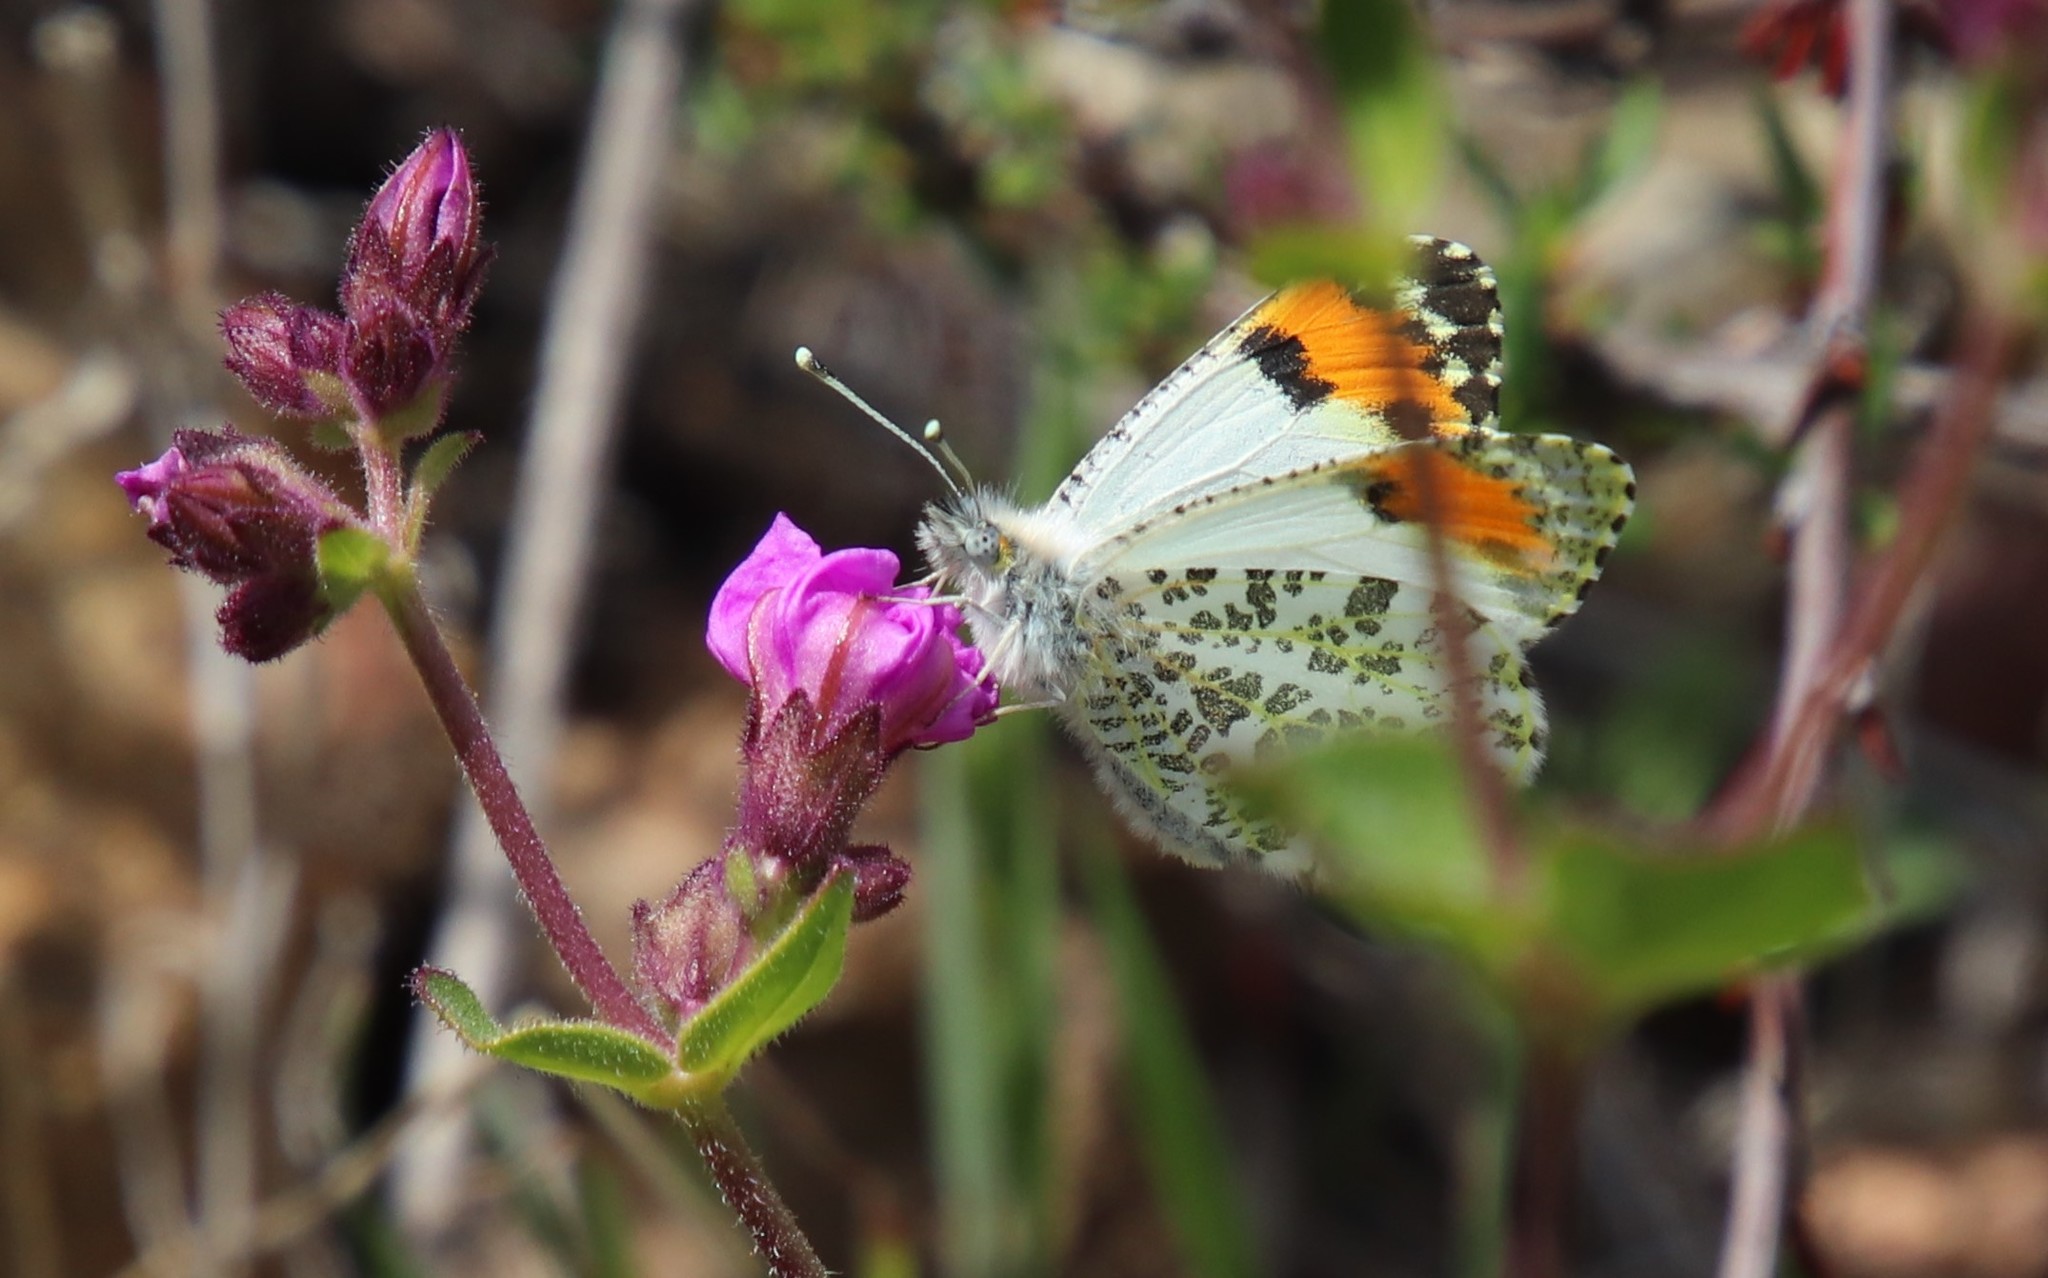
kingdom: Animalia
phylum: Arthropoda
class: Insecta
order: Lepidoptera
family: Pieridae
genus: Anthocharis
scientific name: Anthocharis sara
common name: Sara's orangetip
